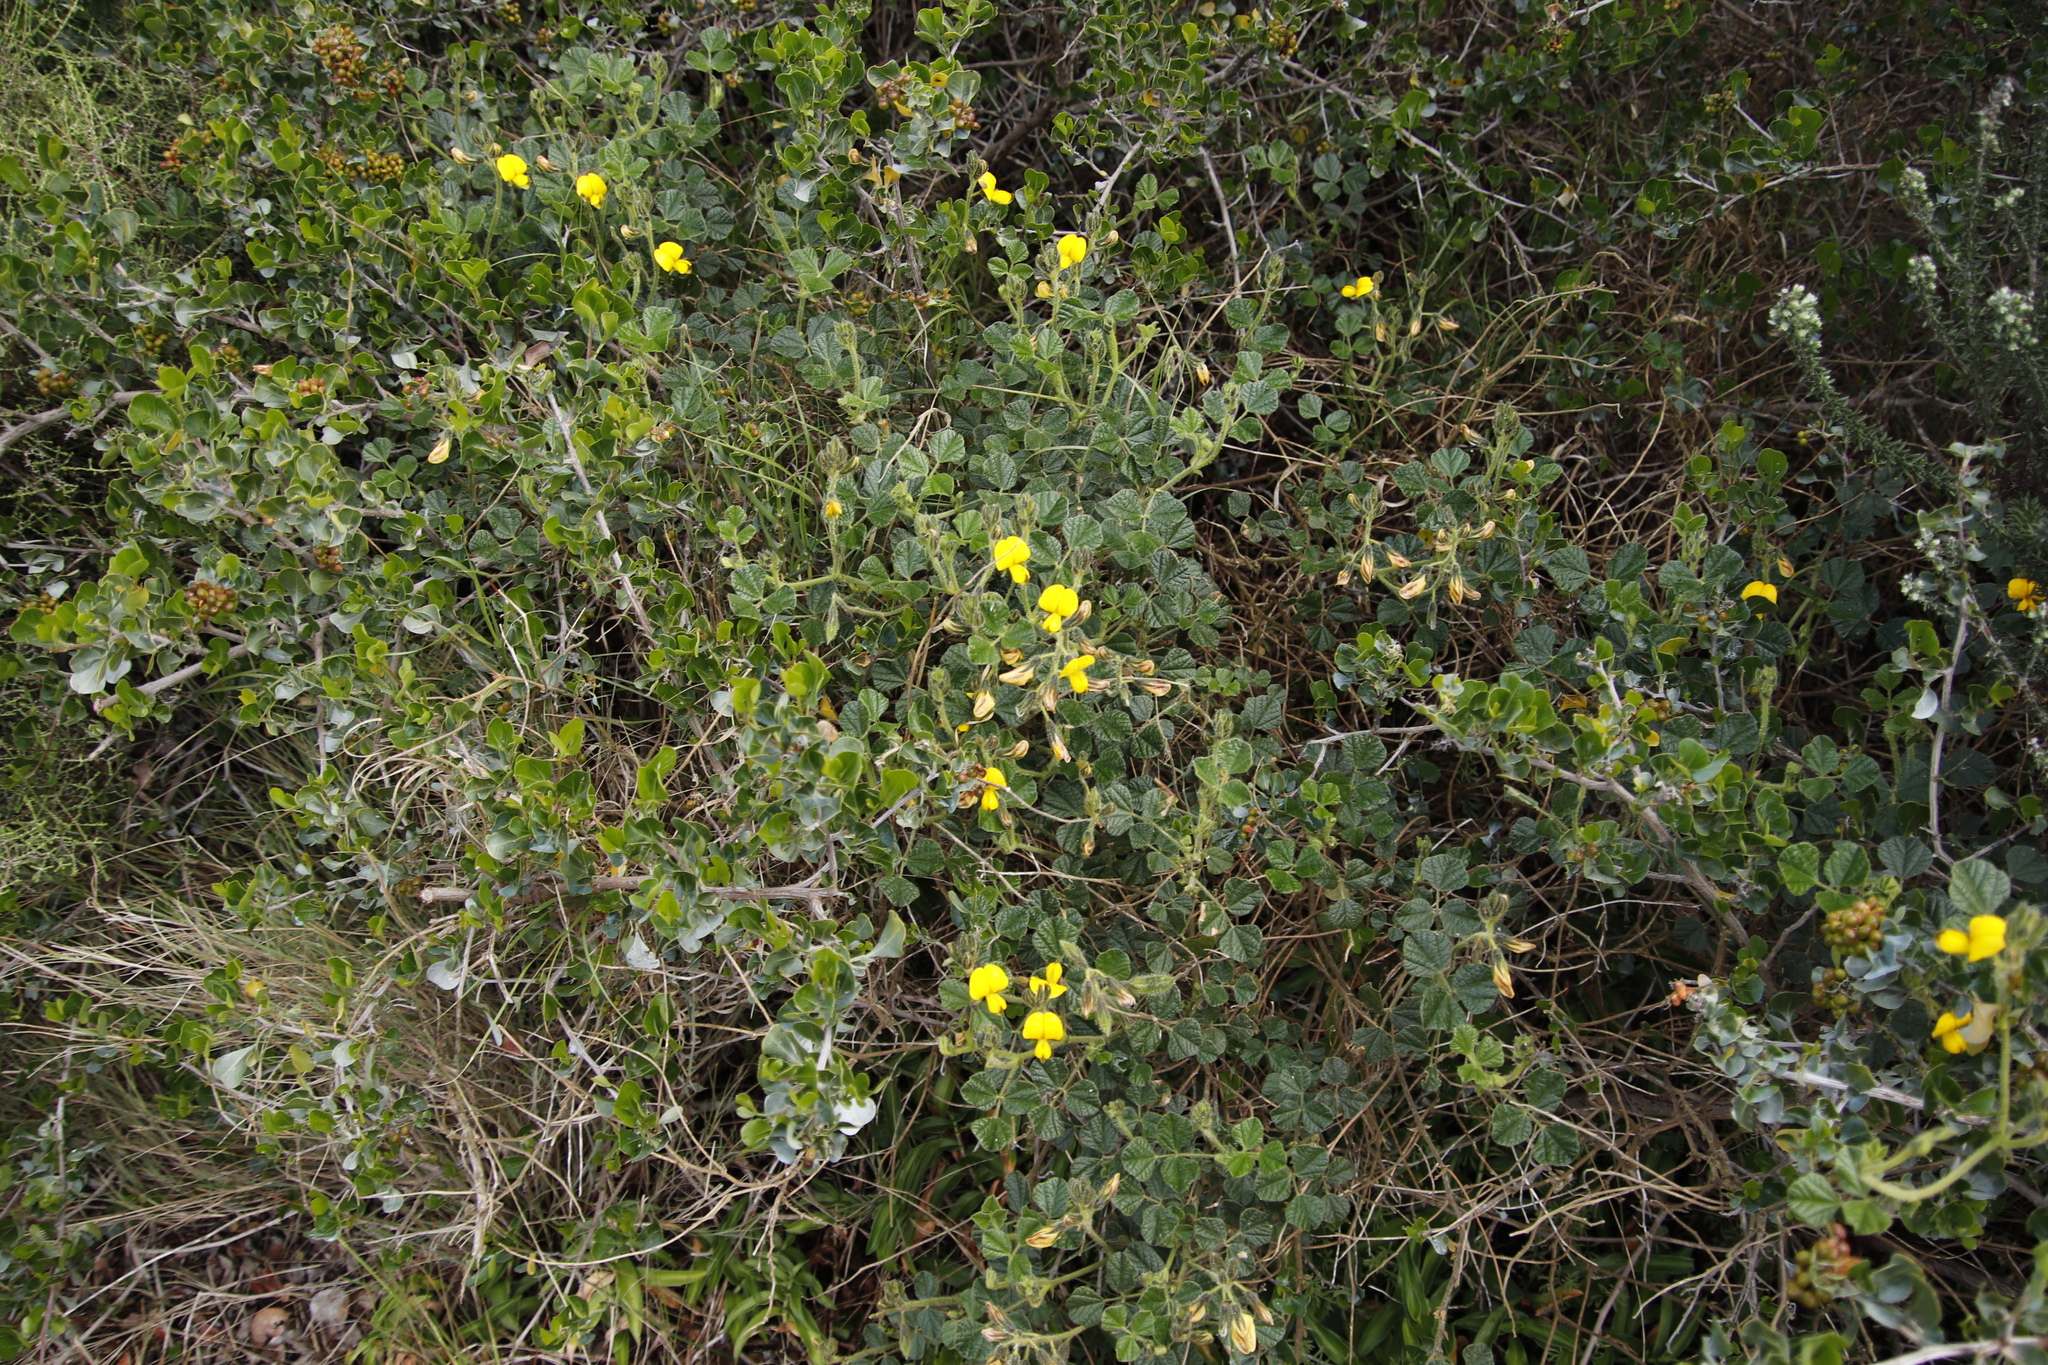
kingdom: Plantae
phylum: Tracheophyta
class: Magnoliopsida
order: Fabales
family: Fabaceae
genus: Bolusafra
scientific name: Bolusafra bituminosa
